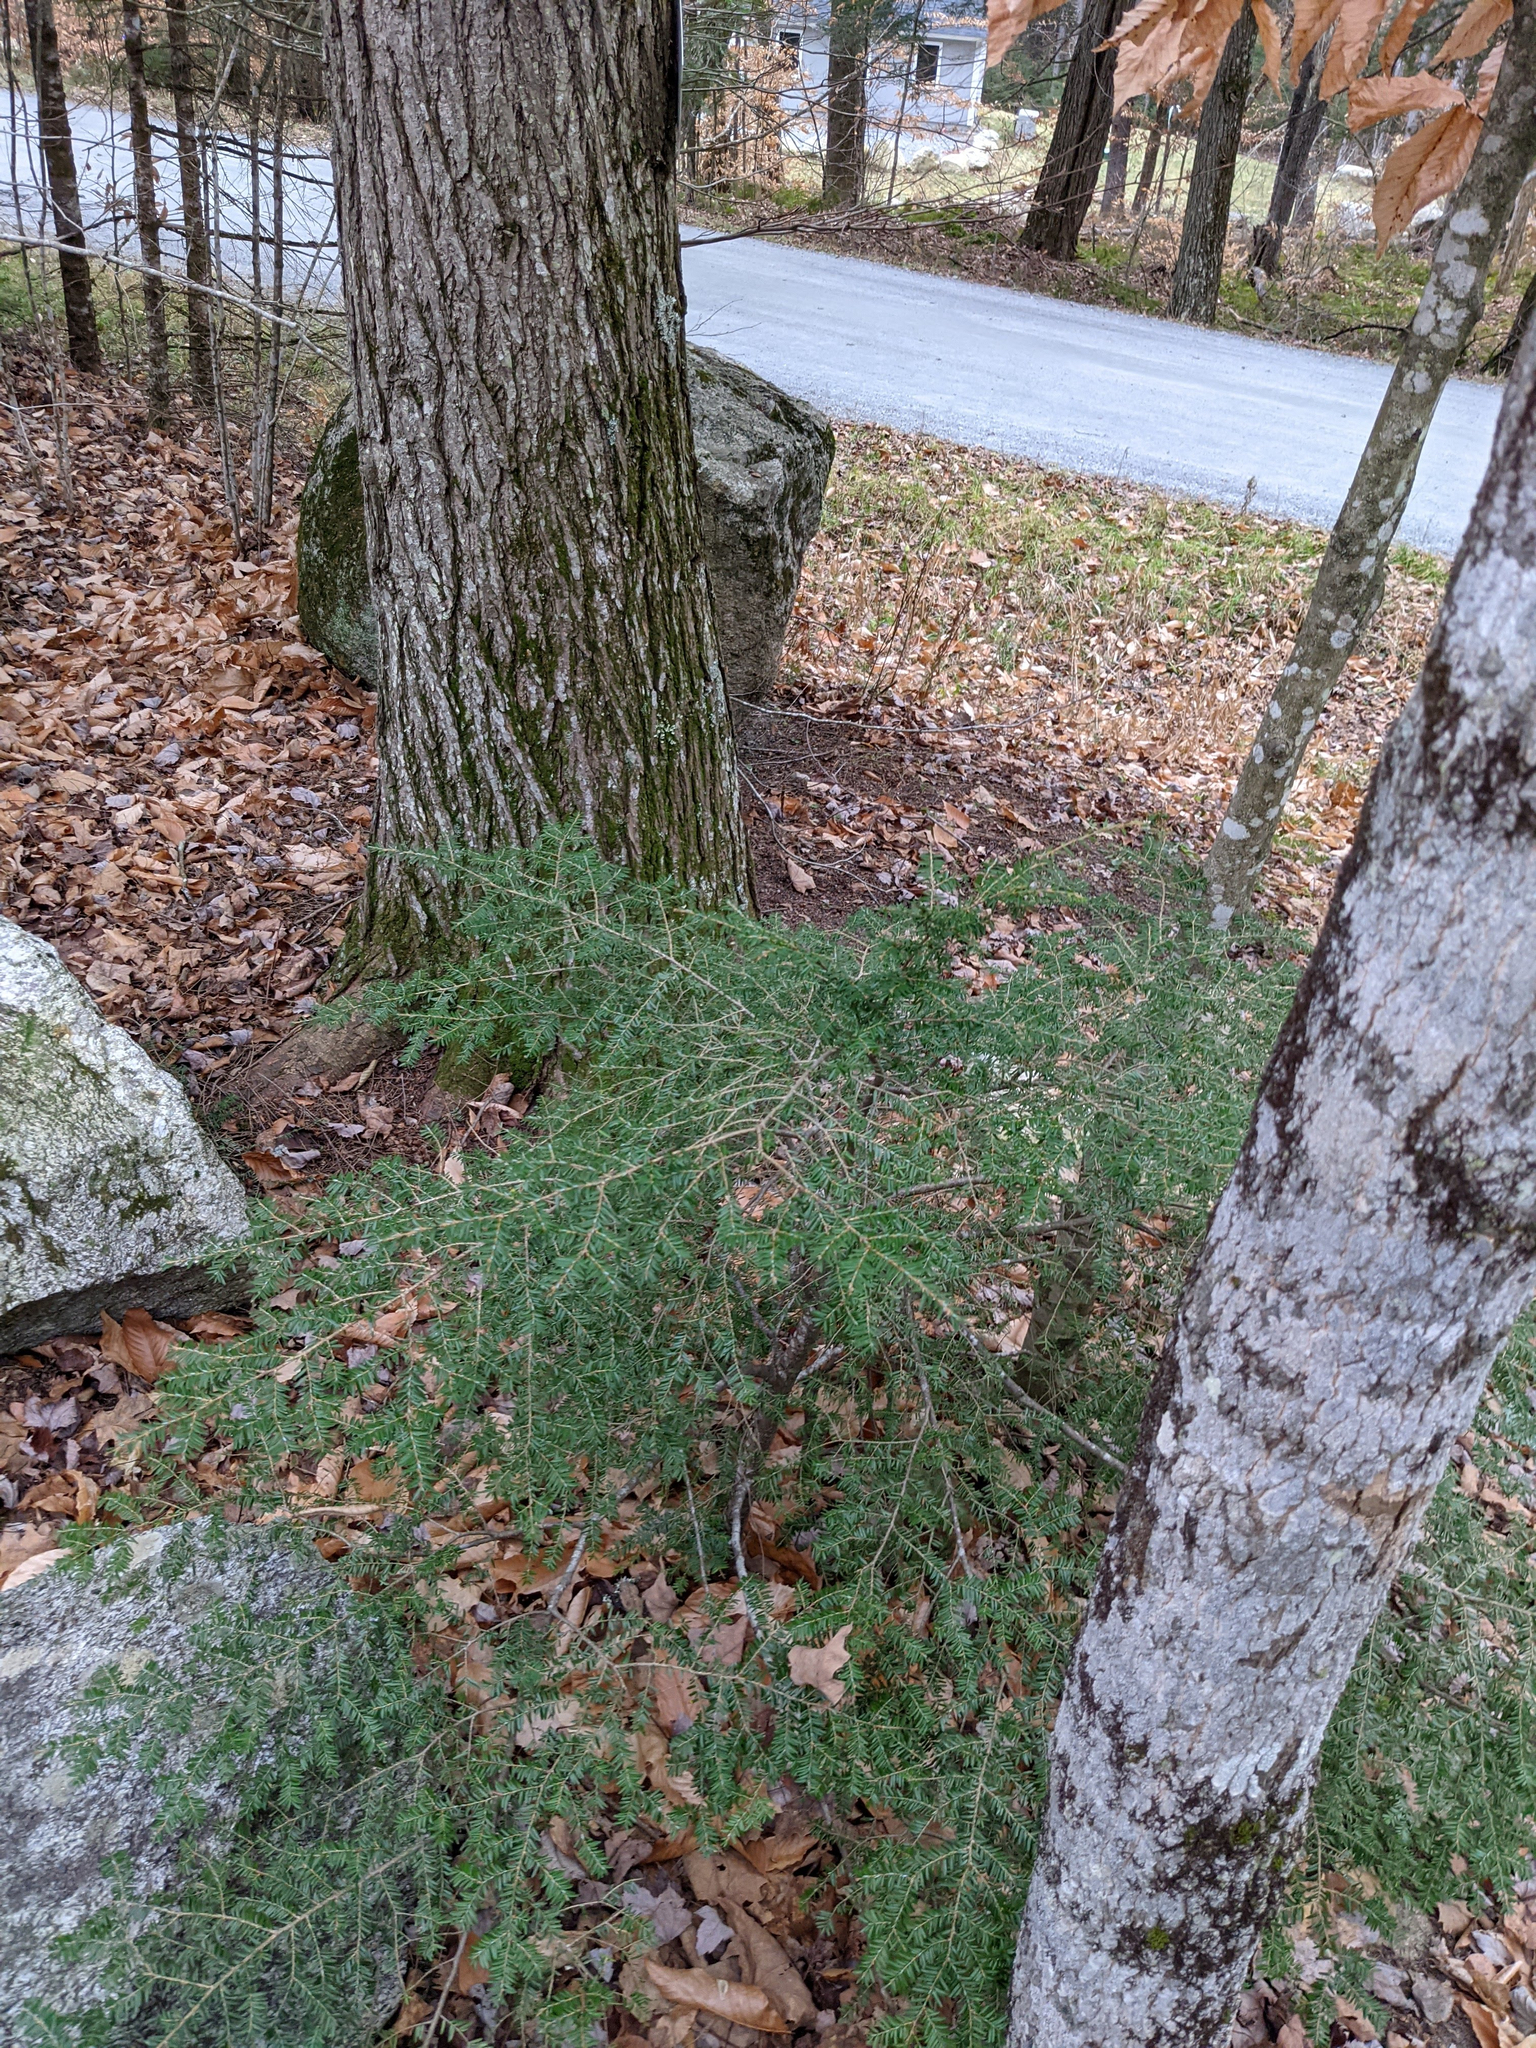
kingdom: Plantae
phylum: Tracheophyta
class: Pinopsida
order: Pinales
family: Pinaceae
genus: Tsuga
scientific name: Tsuga canadensis
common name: Eastern hemlock
